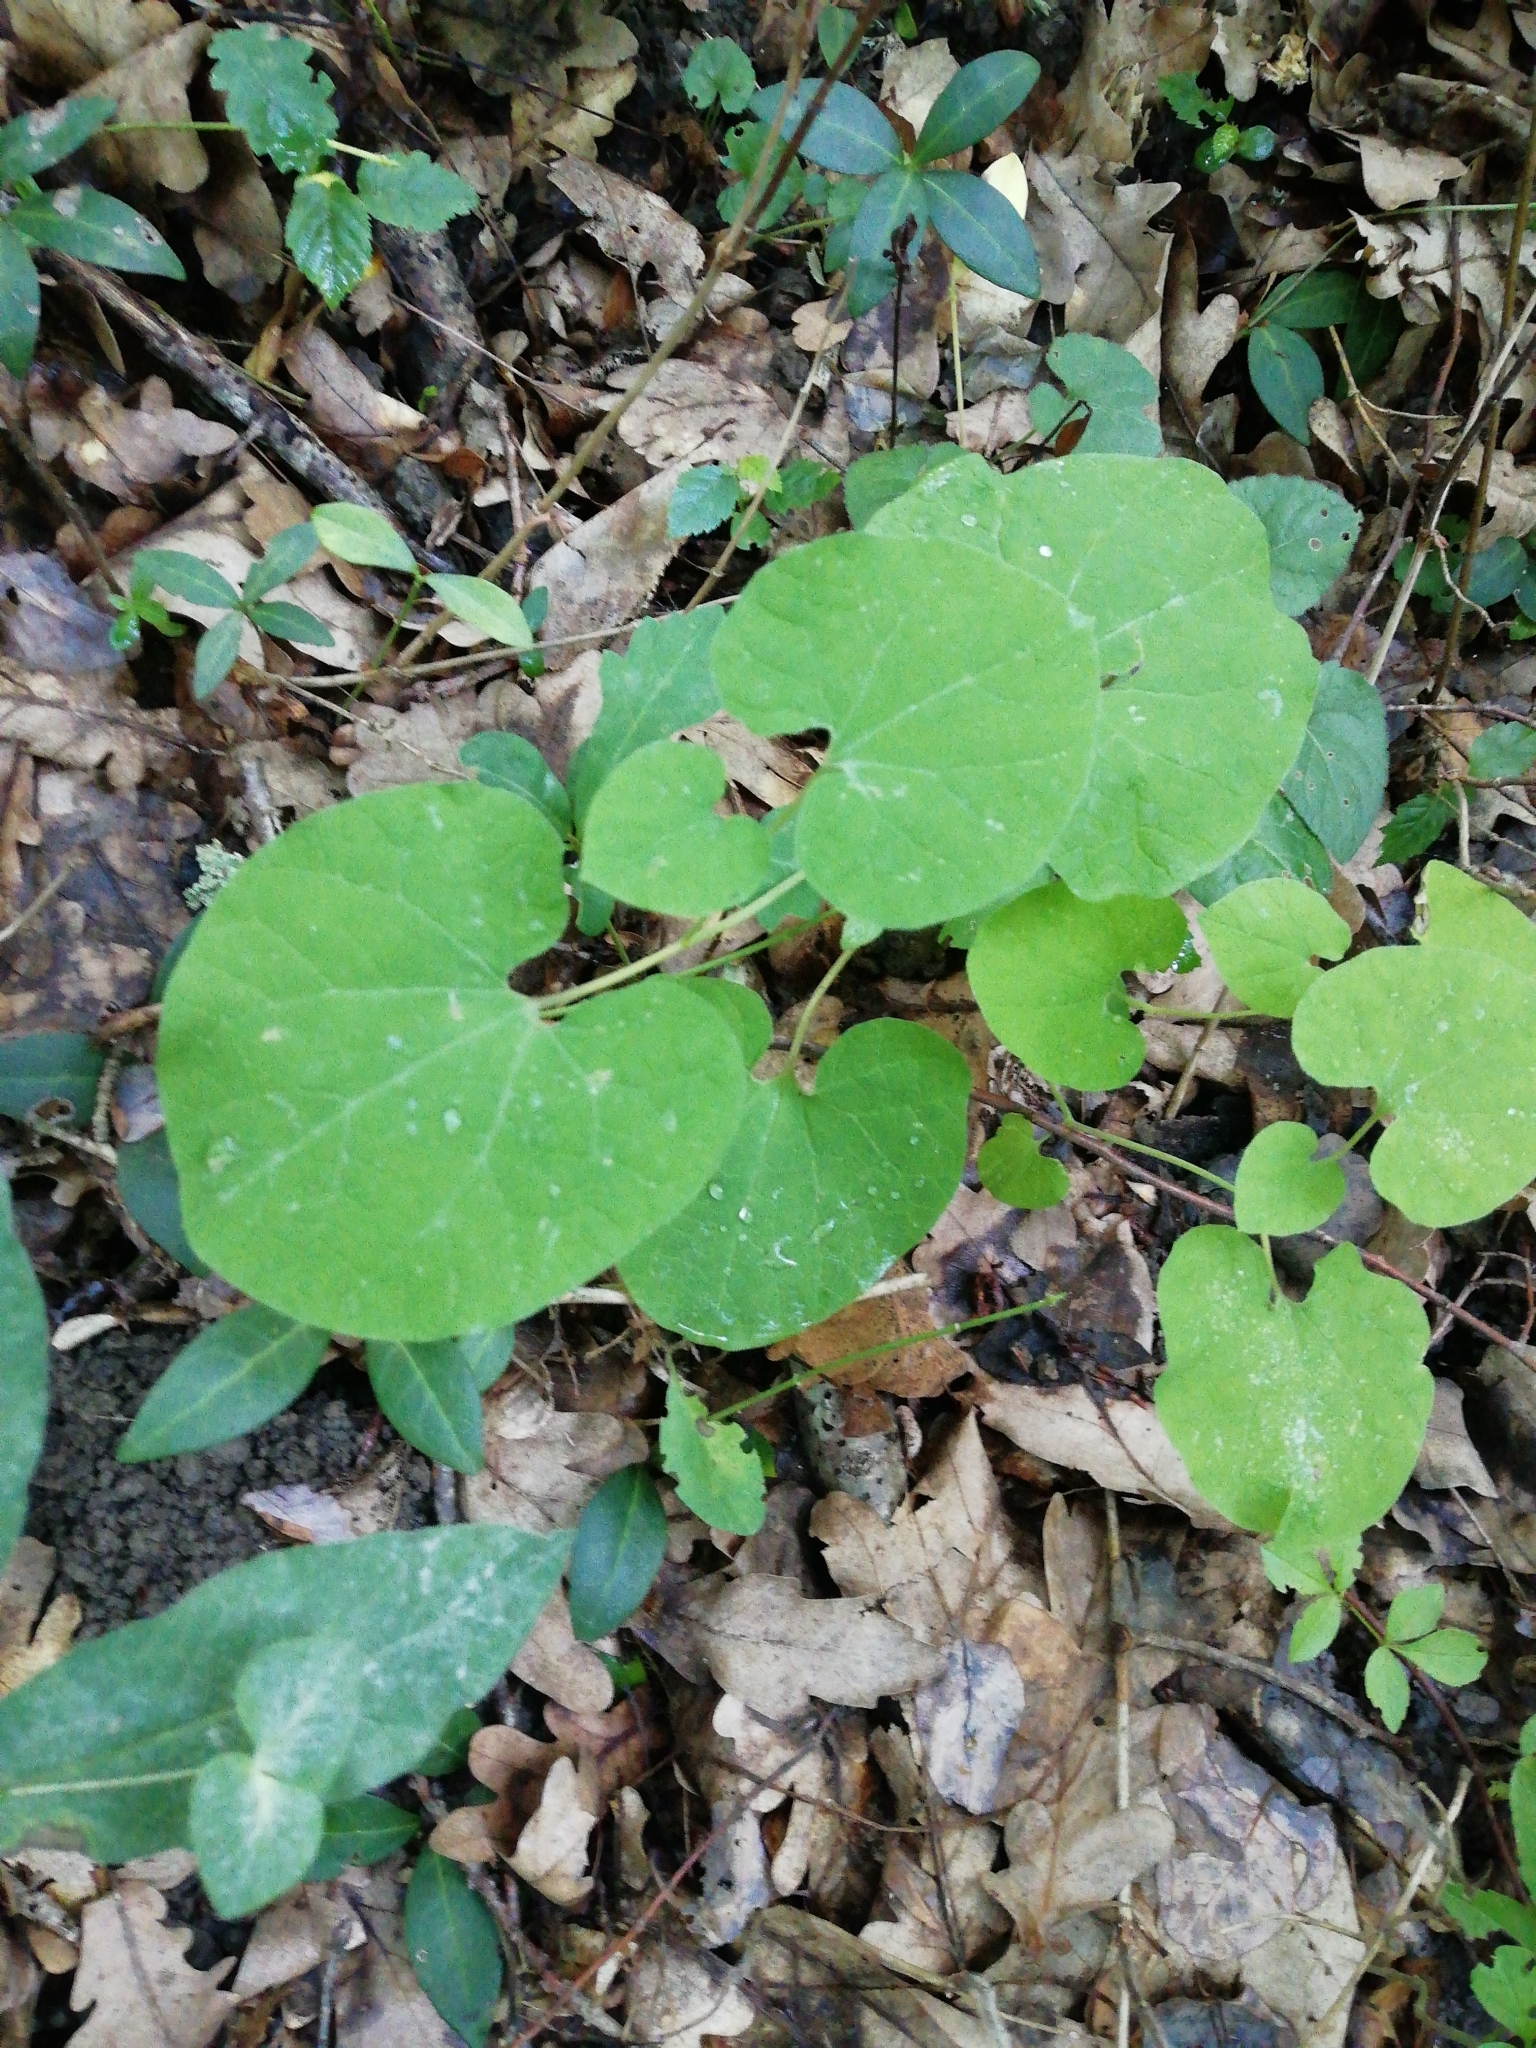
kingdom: Plantae
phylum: Tracheophyta
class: Magnoliopsida
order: Piperales
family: Aristolochiaceae
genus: Aristolochia
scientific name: Aristolochia steupii
